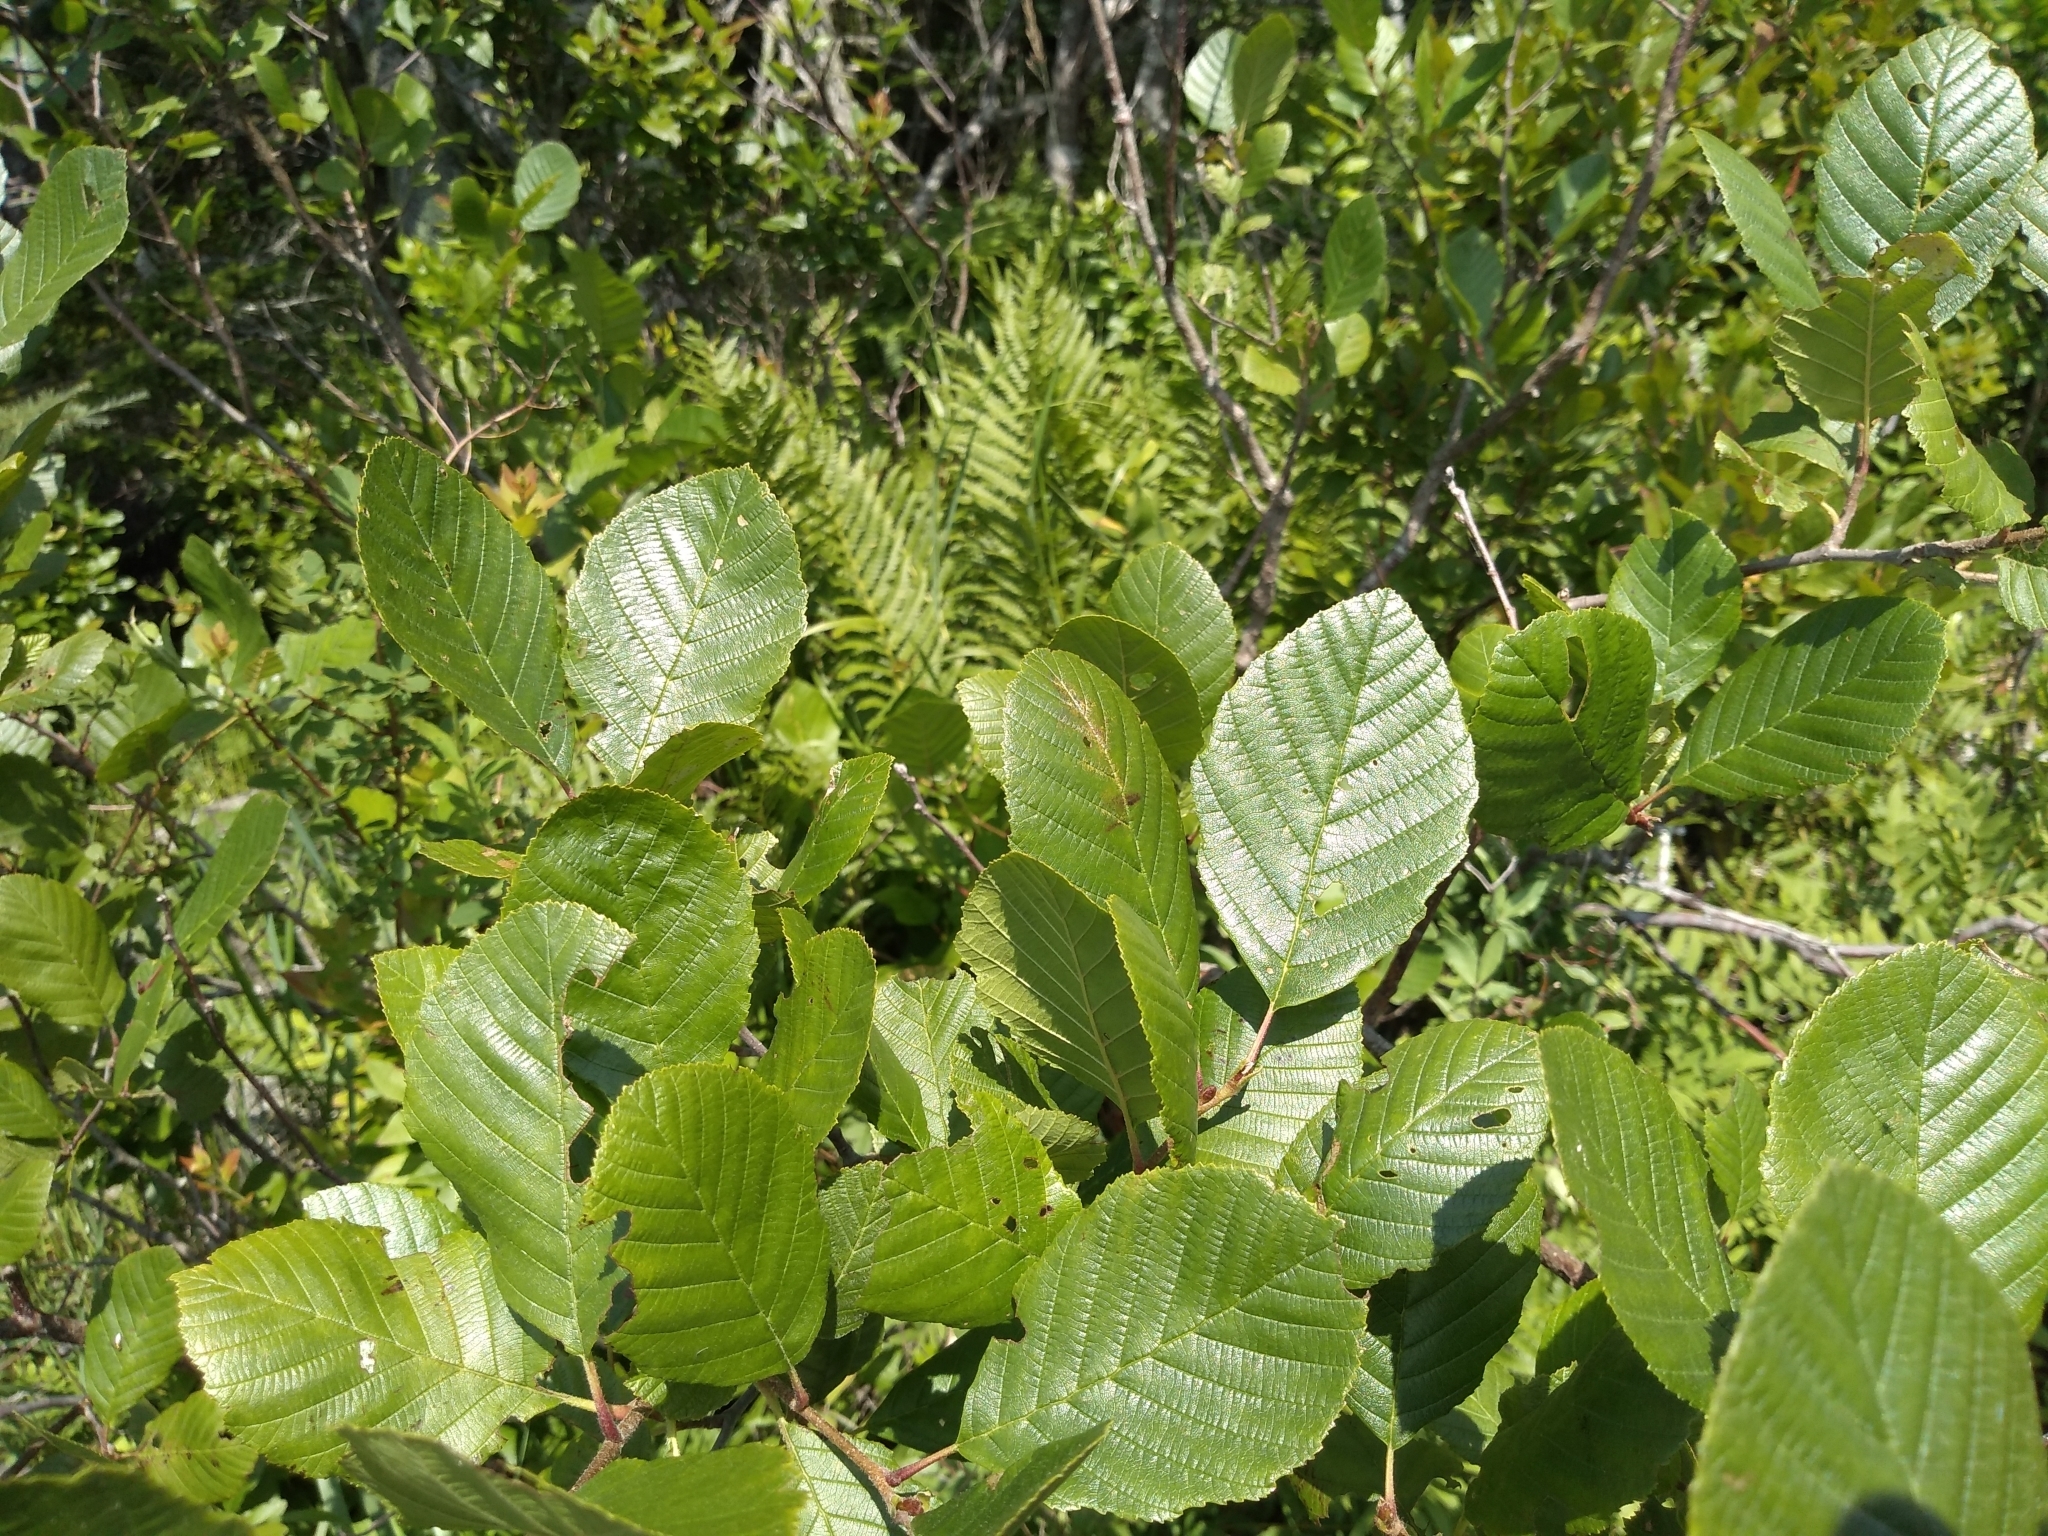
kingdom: Plantae
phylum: Tracheophyta
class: Magnoliopsida
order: Fagales
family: Betulaceae
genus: Alnus
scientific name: Alnus serrulata
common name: Hazel alder
